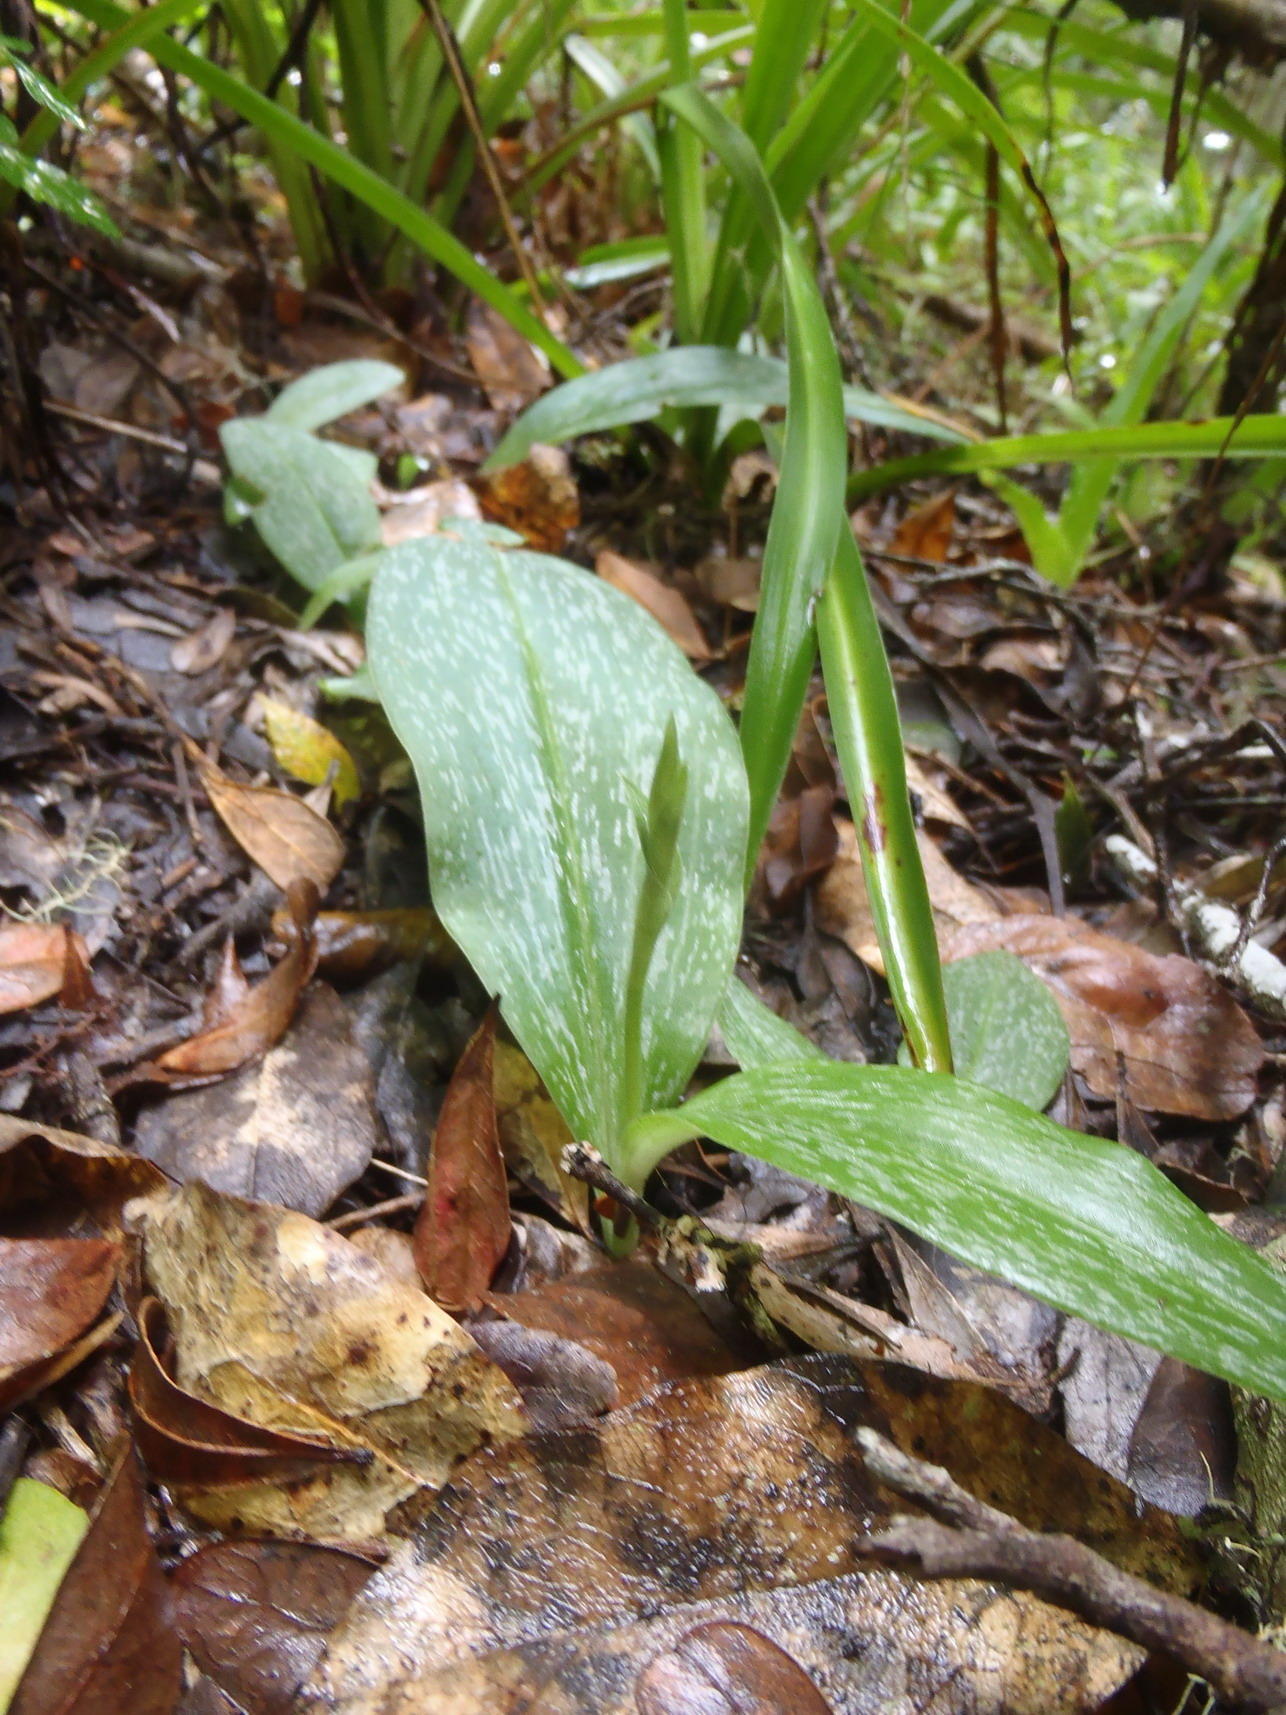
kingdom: Plantae
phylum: Tracheophyta
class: Liliopsida
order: Asparagales
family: Orchidaceae
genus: Habenaria
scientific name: Habenaria arenaria
